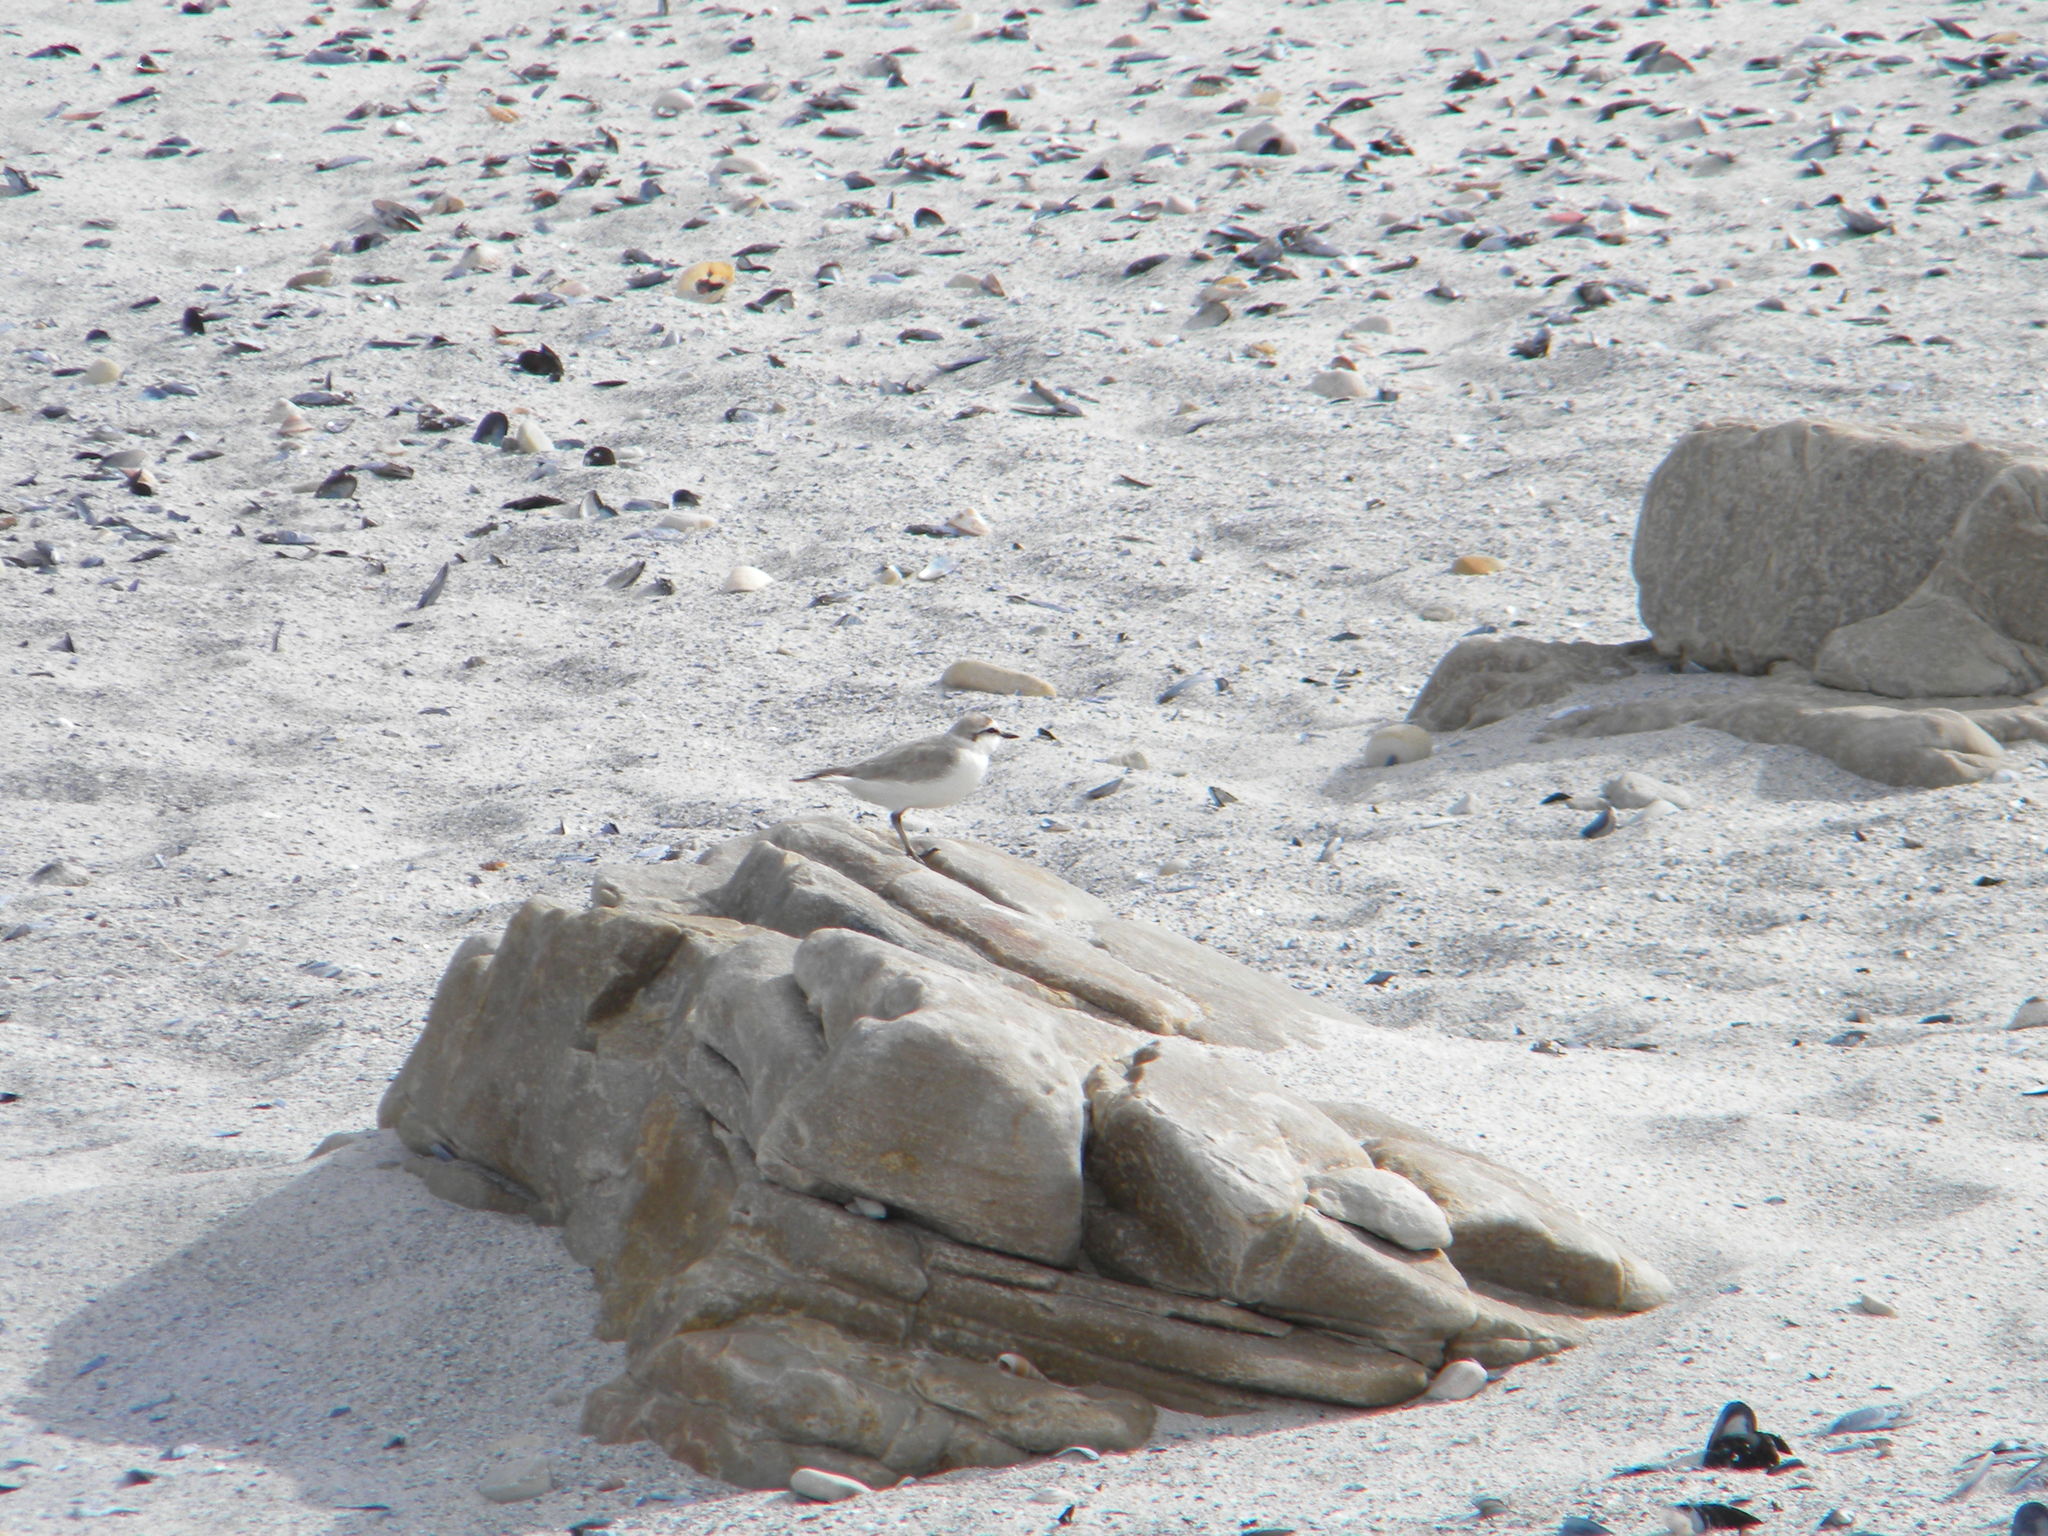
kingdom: Animalia
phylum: Chordata
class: Aves
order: Charadriiformes
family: Charadriidae
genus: Anarhynchus
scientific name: Anarhynchus
